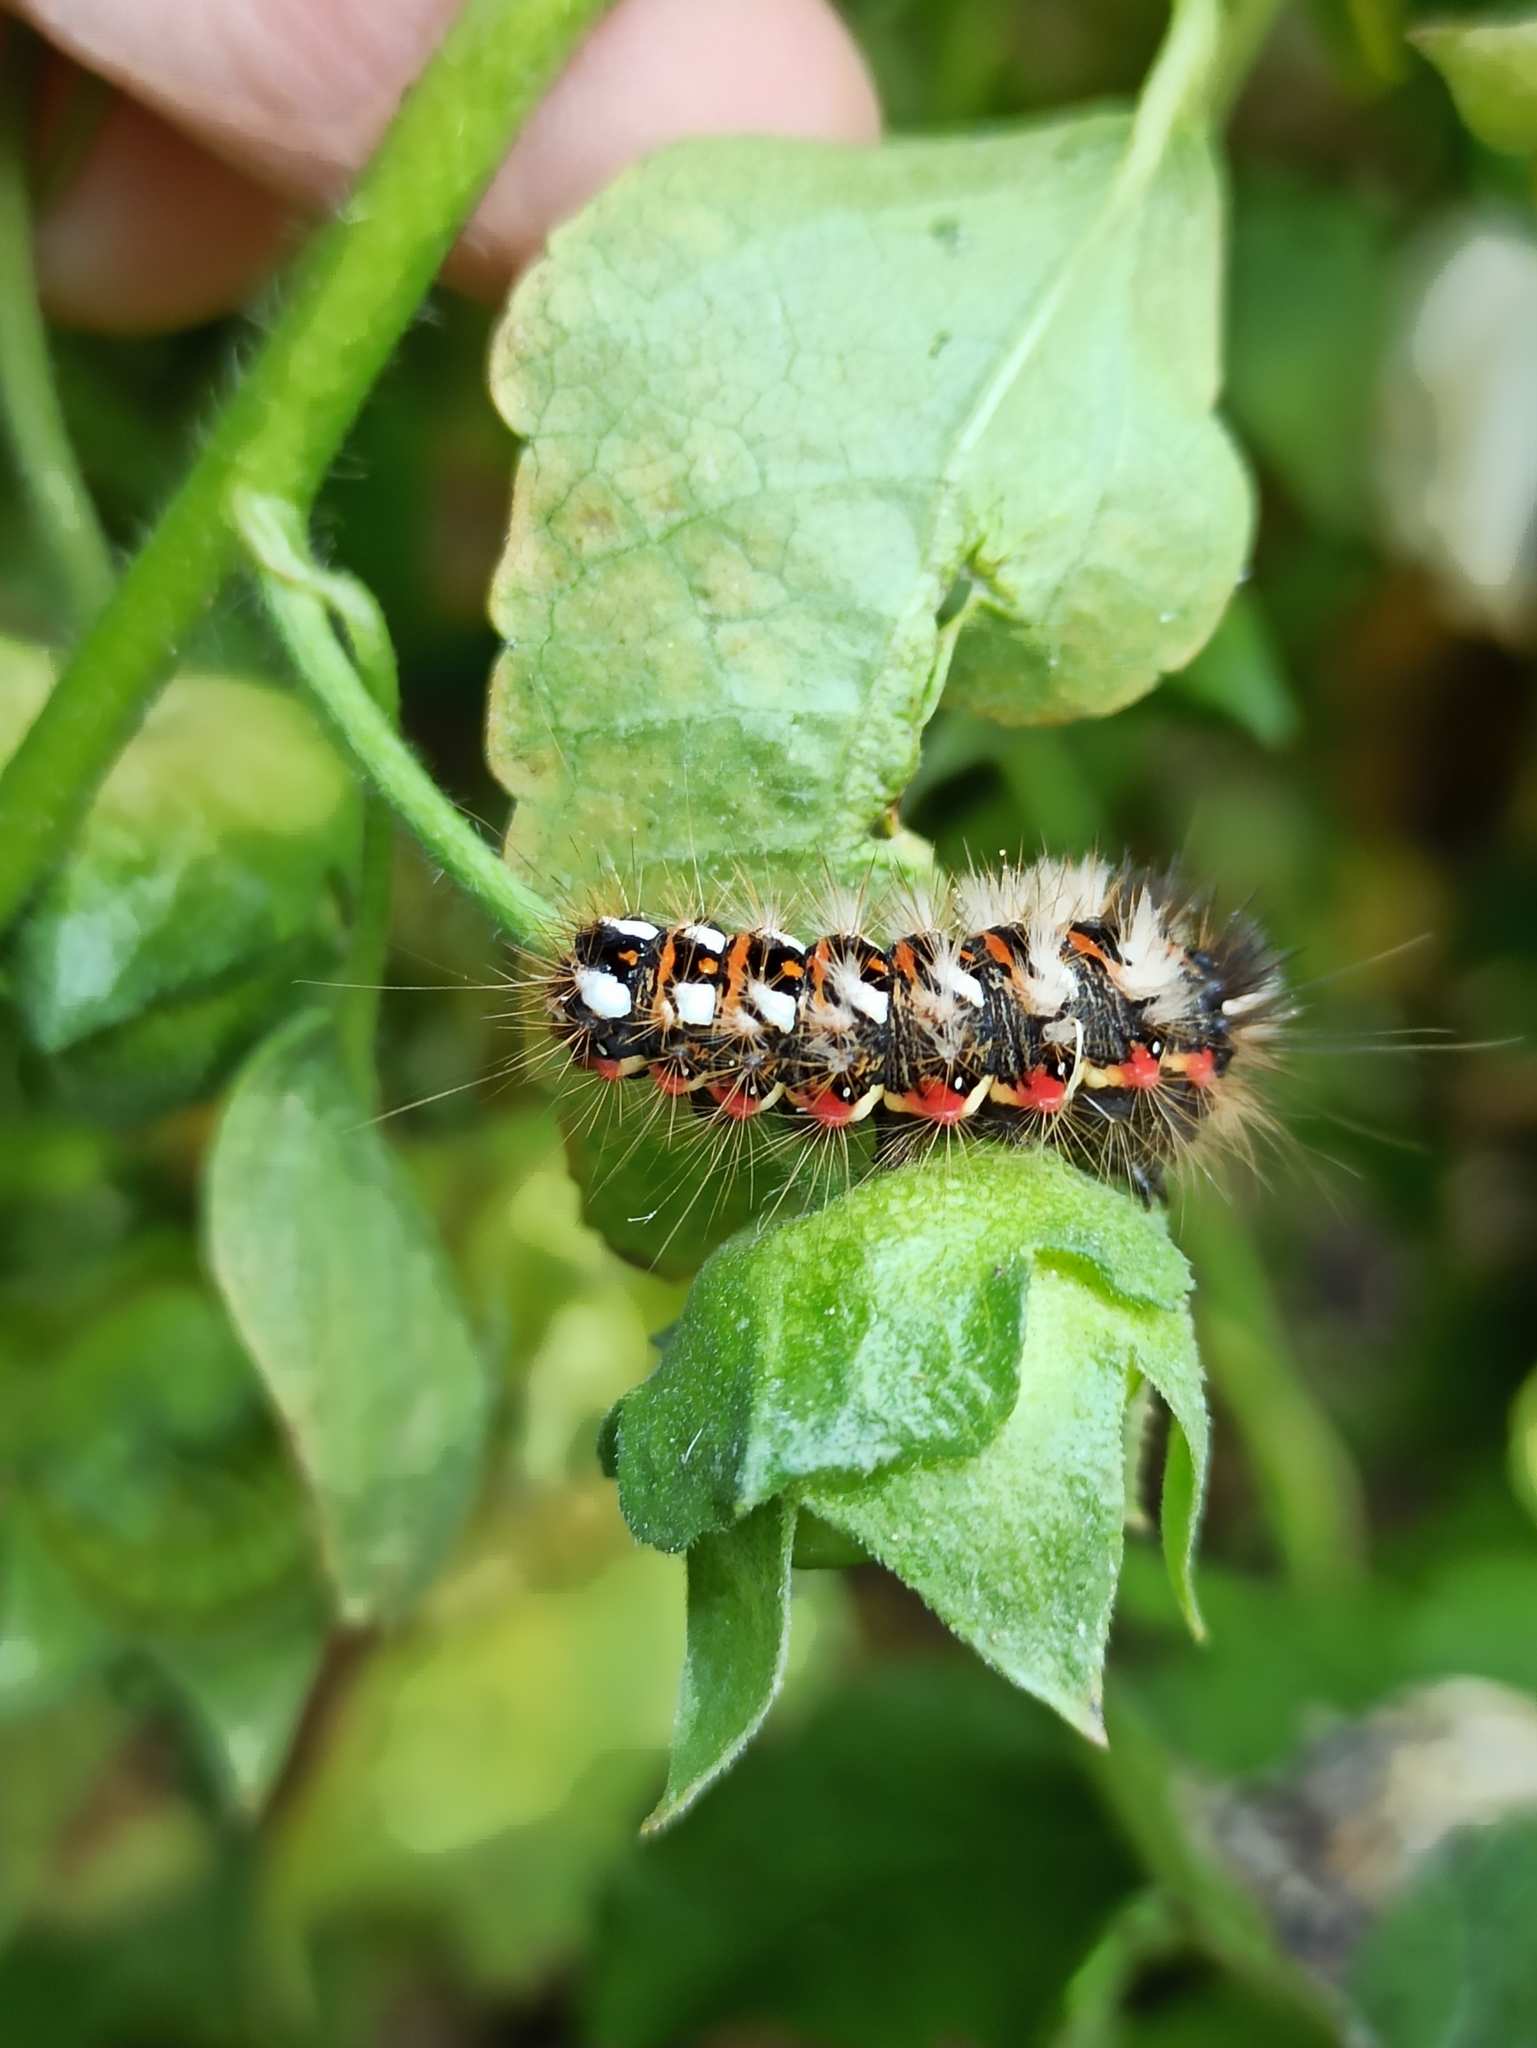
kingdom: Animalia
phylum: Arthropoda
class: Insecta
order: Lepidoptera
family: Noctuidae
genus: Acronicta
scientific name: Acronicta rumicis
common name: Knot grass
